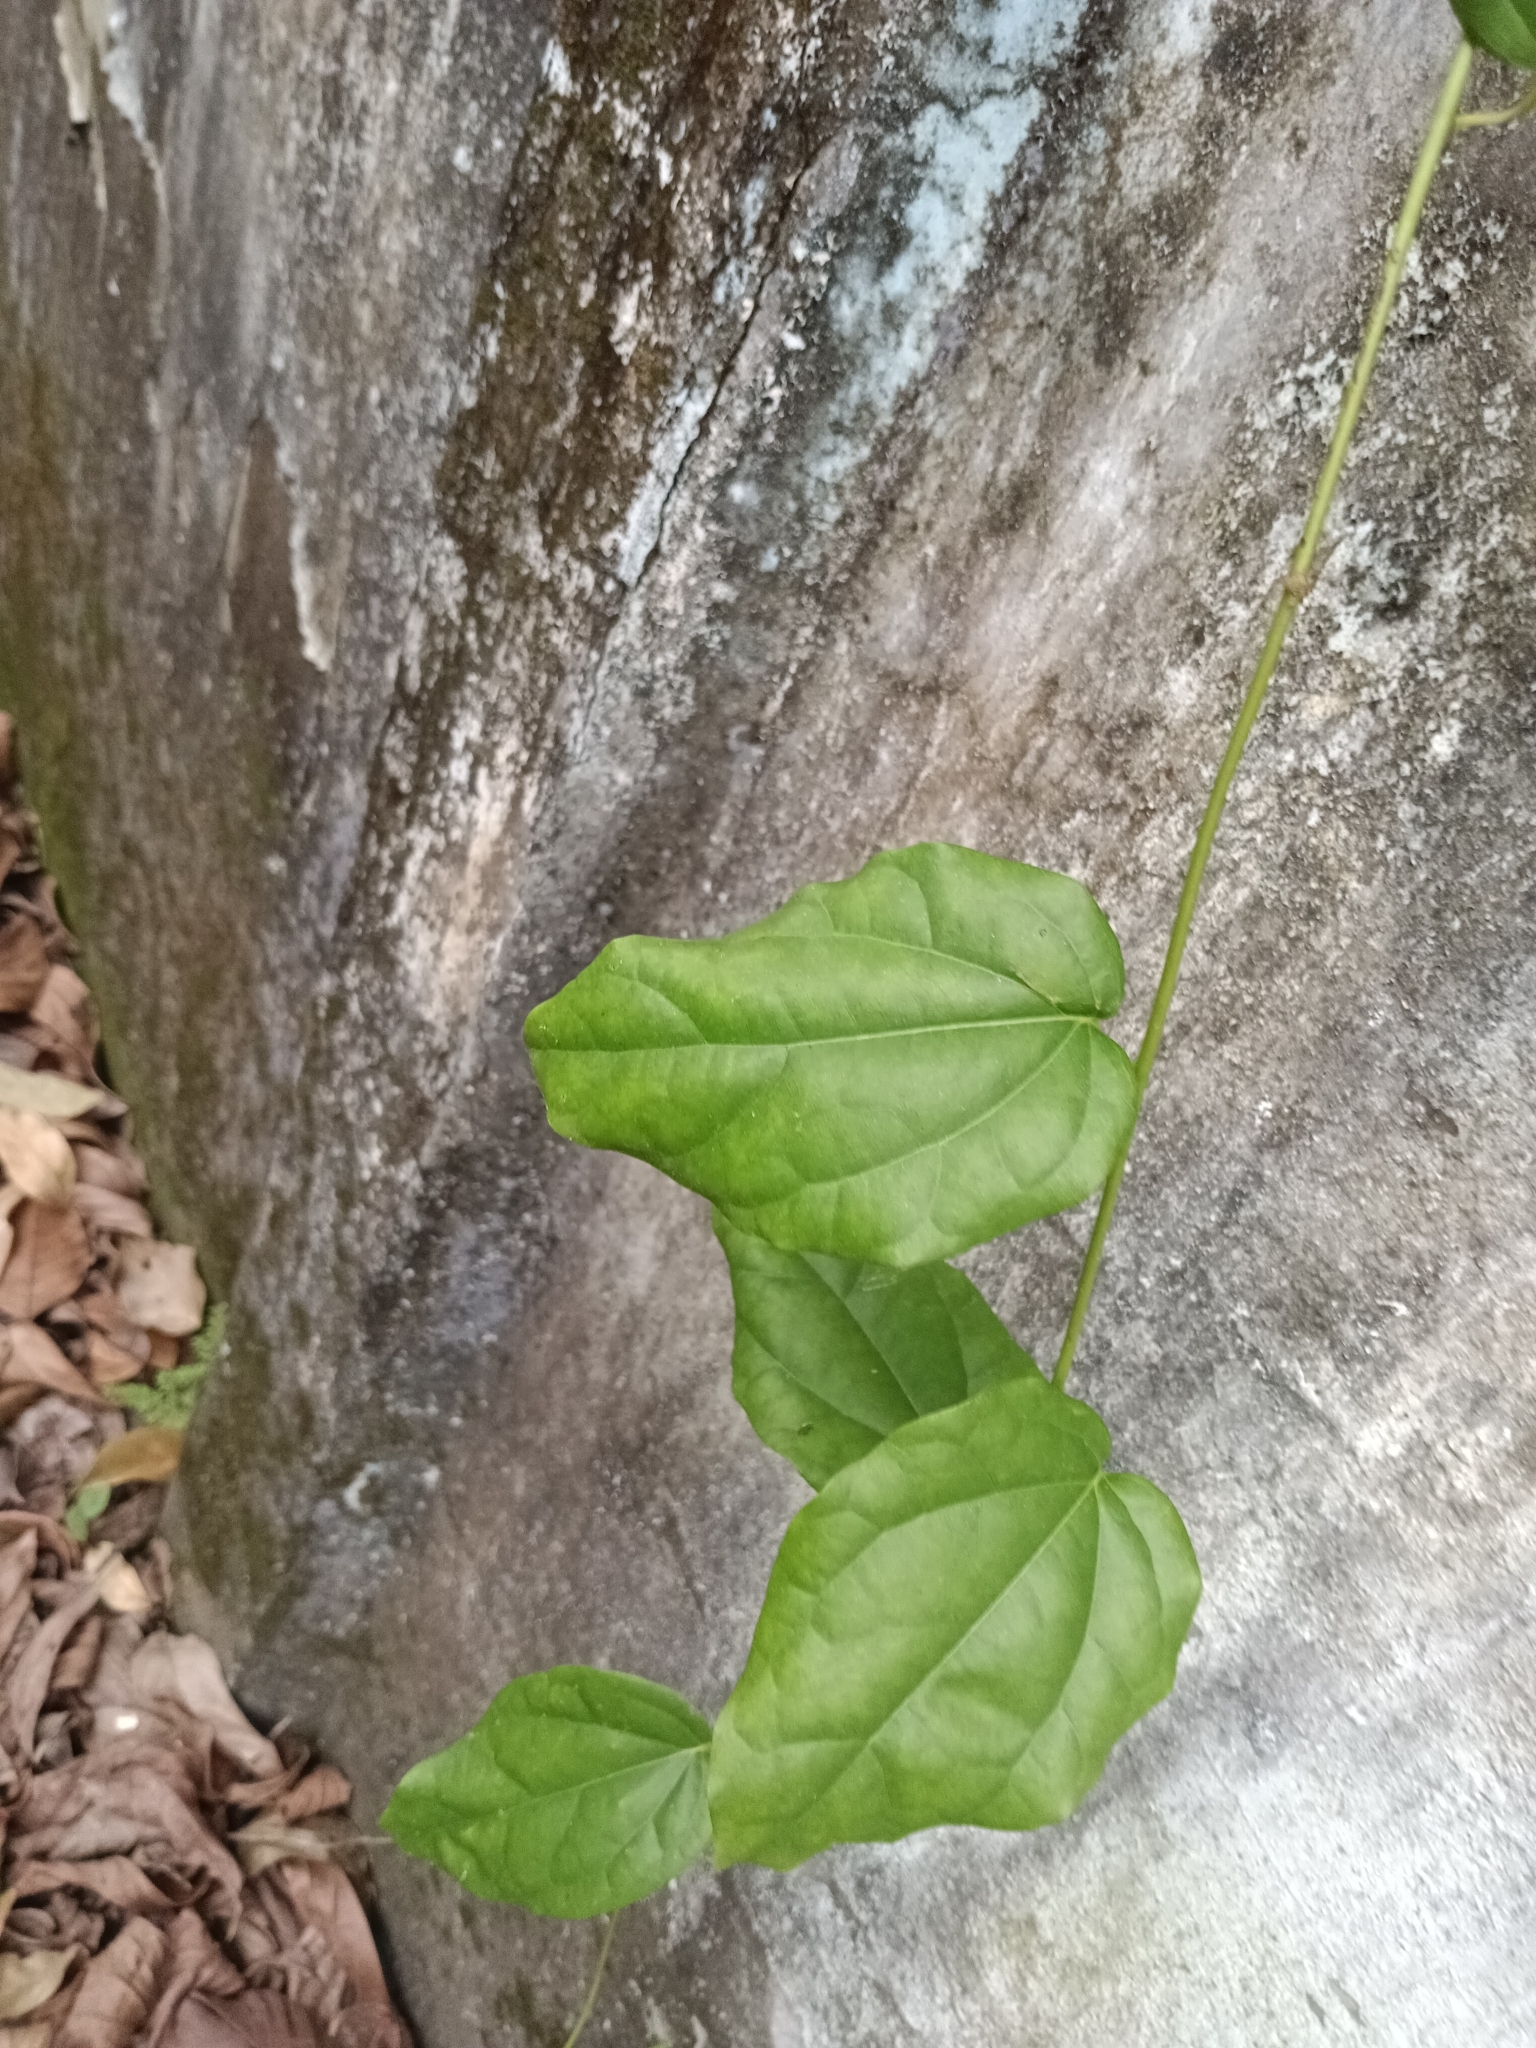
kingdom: Plantae
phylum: Tracheophyta
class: Magnoliopsida
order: Ranunculales
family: Menispermaceae
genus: Tiliacora
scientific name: Tiliacora acuminata
